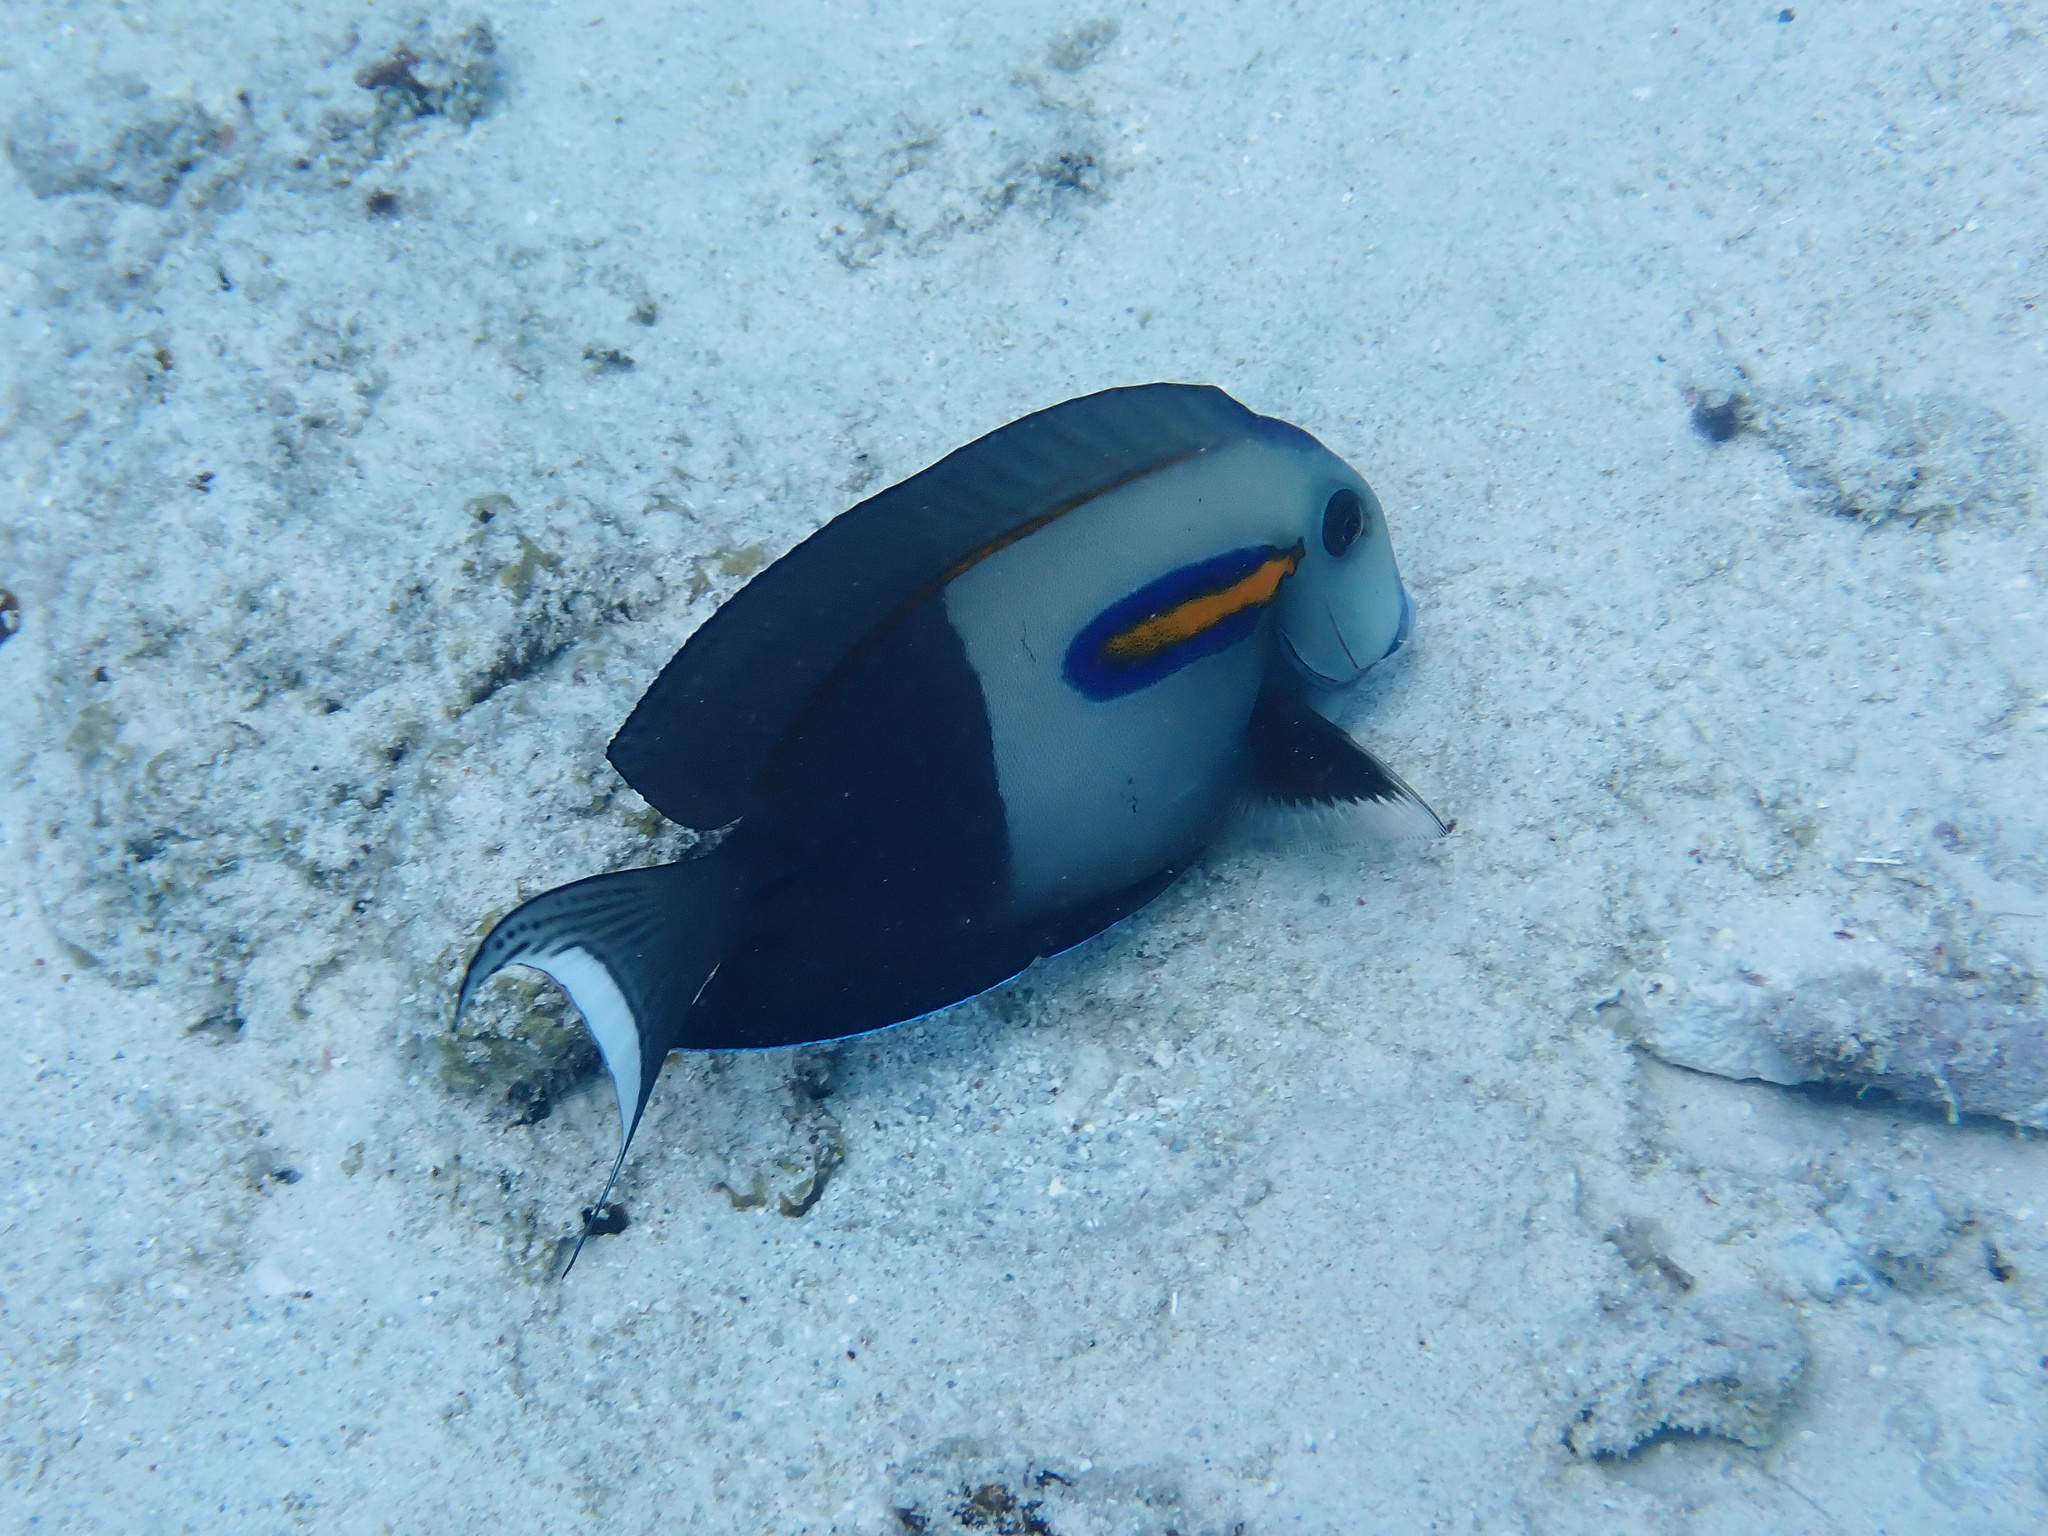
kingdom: Animalia
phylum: Chordata
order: Perciformes
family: Acanthuridae
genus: Acanthurus
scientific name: Acanthurus olivaceus
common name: Gendarme fish
